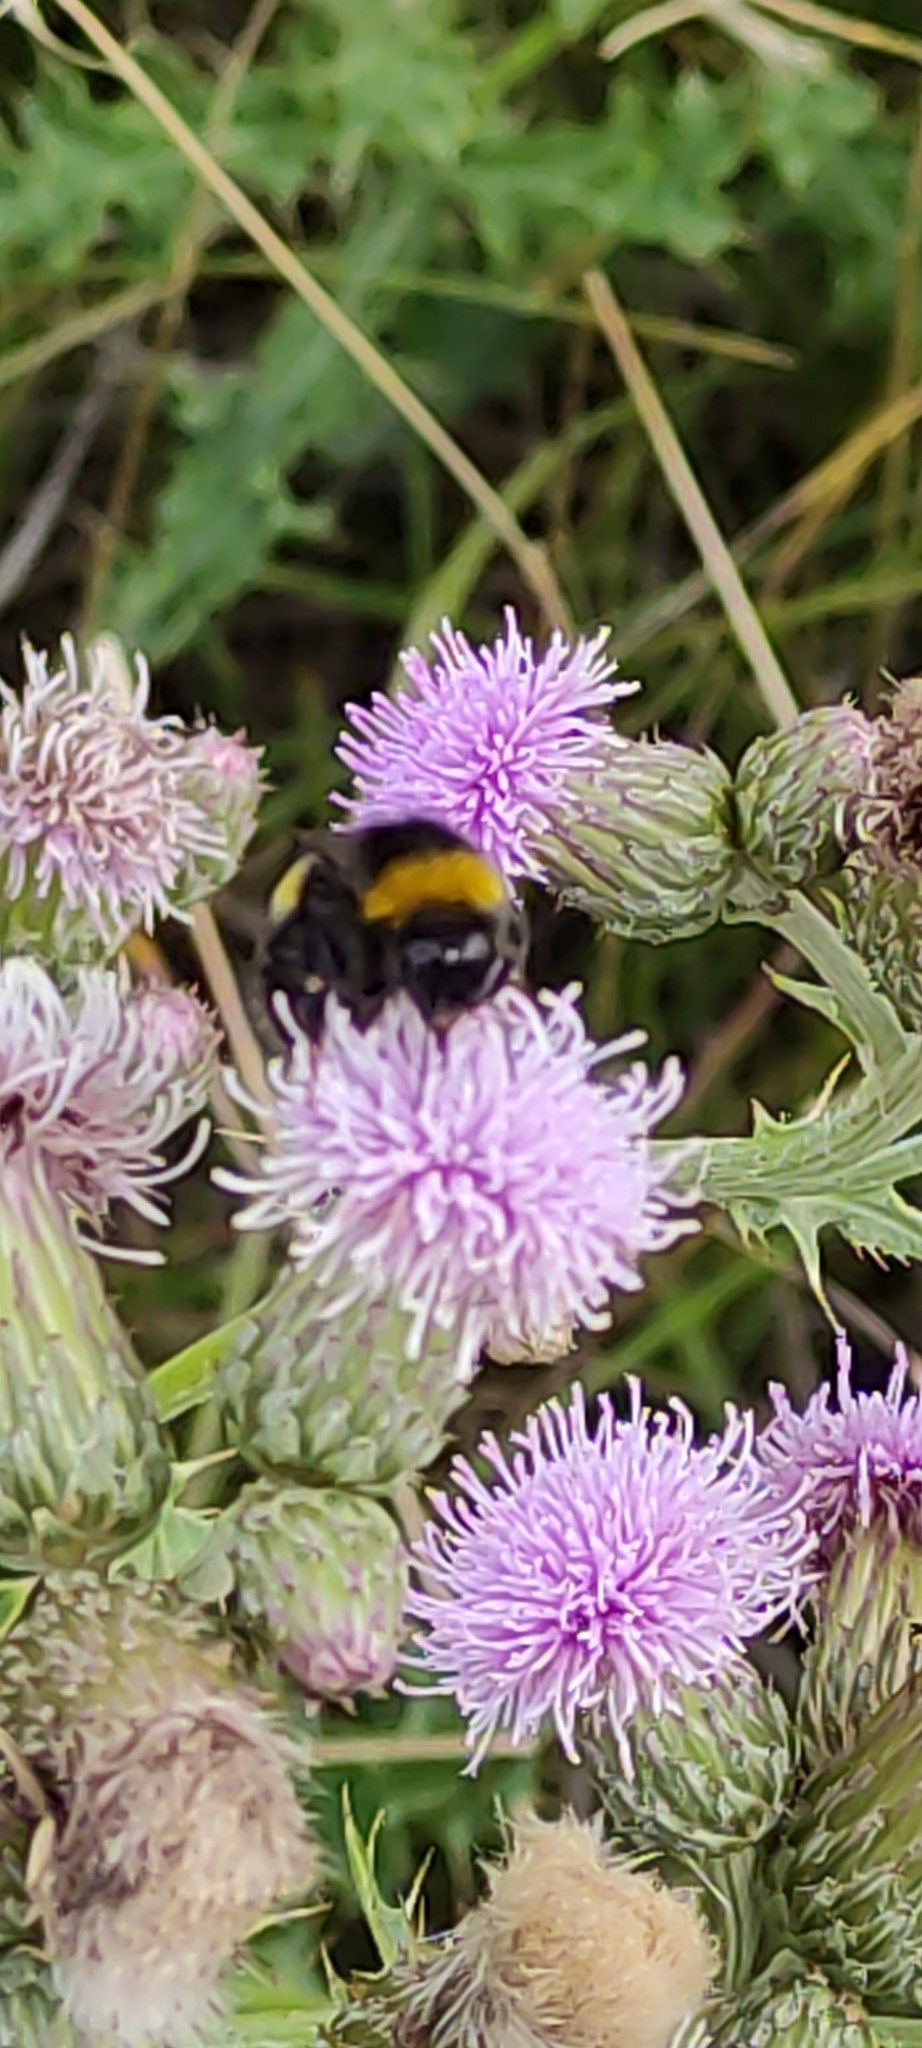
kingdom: Plantae
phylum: Tracheophyta
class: Magnoliopsida
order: Asterales
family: Asteraceae
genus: Cirsium
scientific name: Cirsium arvense
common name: Creeping thistle
